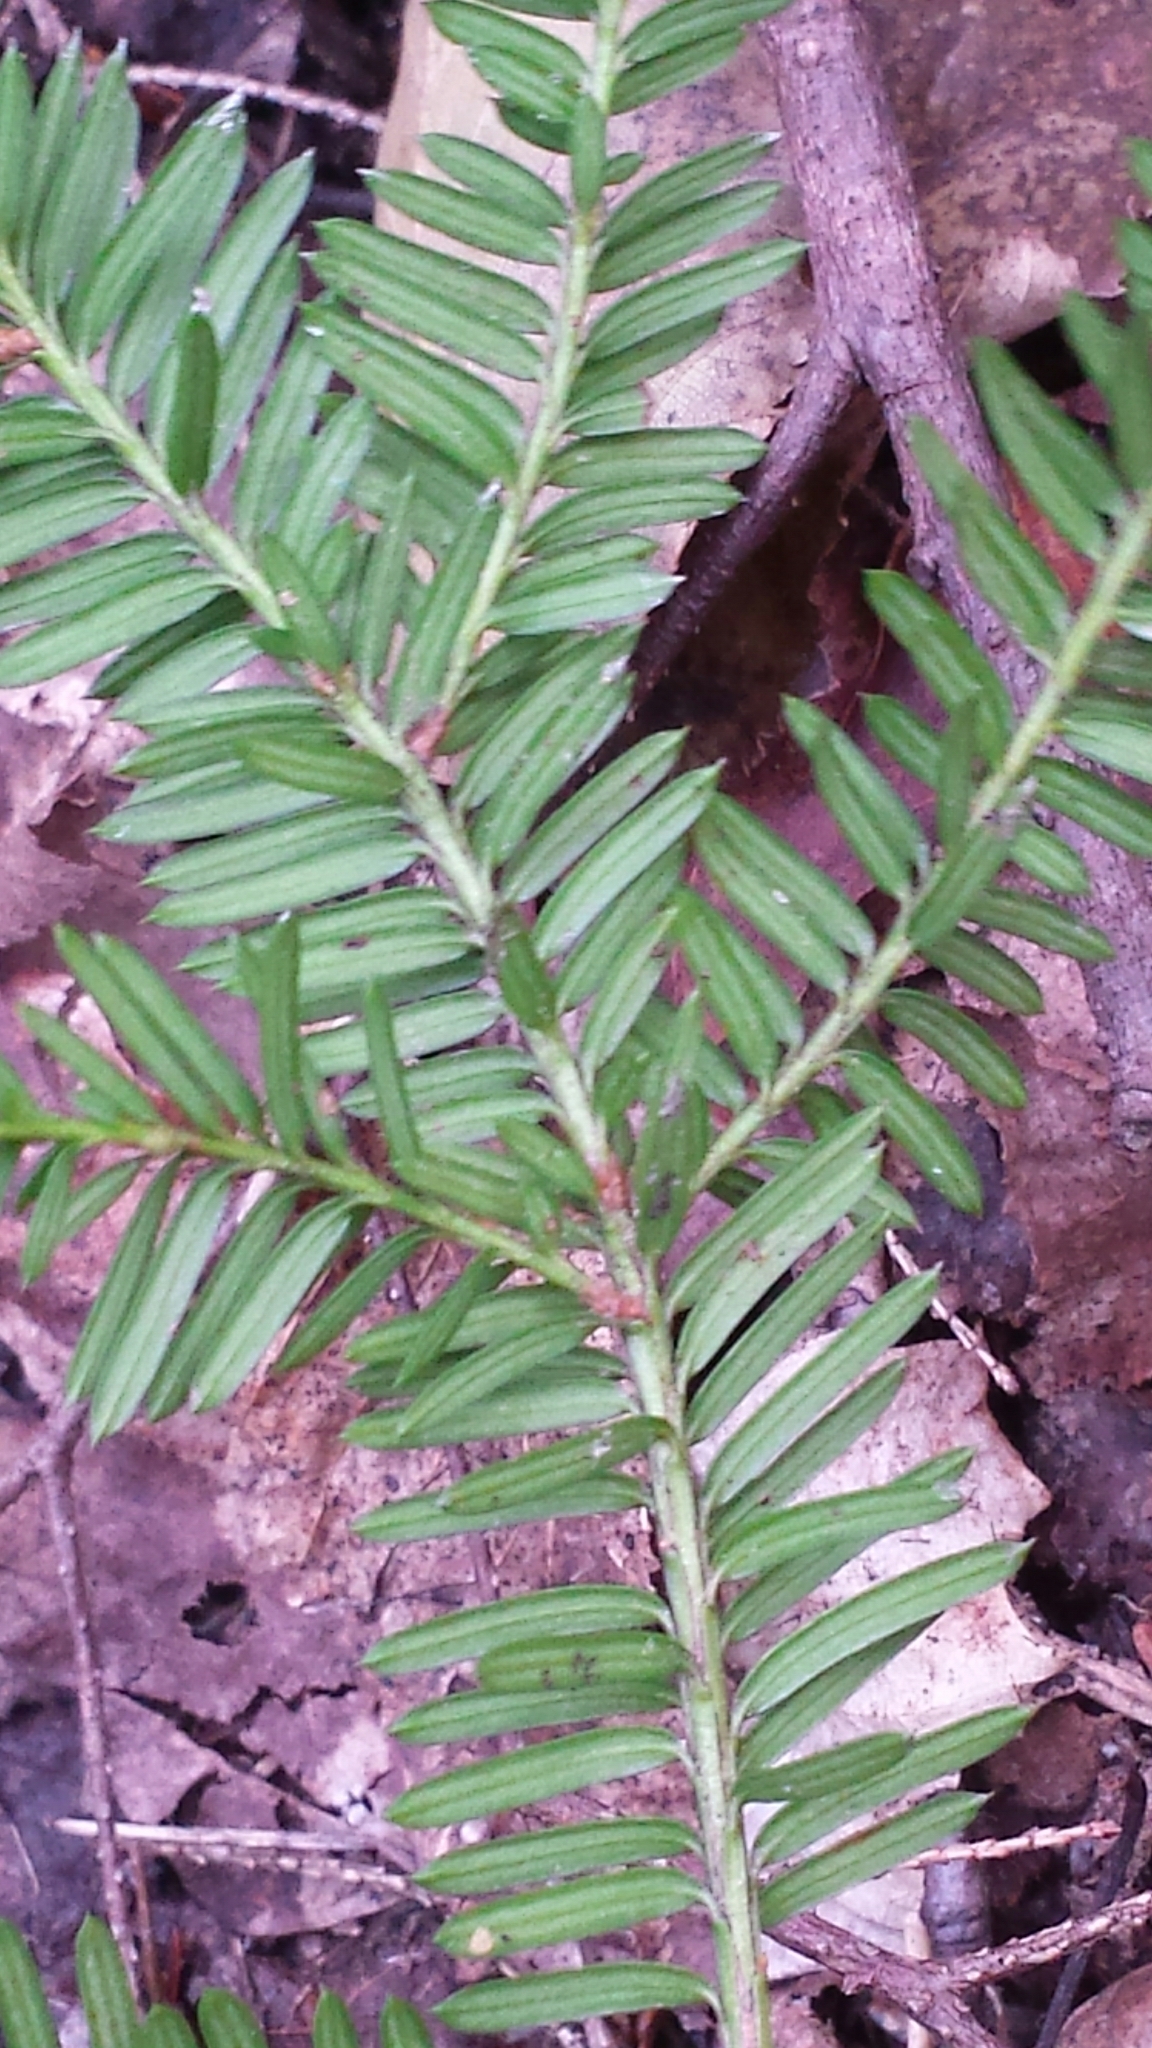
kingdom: Plantae
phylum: Tracheophyta
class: Pinopsida
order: Pinales
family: Taxaceae
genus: Taxus
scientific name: Taxus canadensis
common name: American yew
